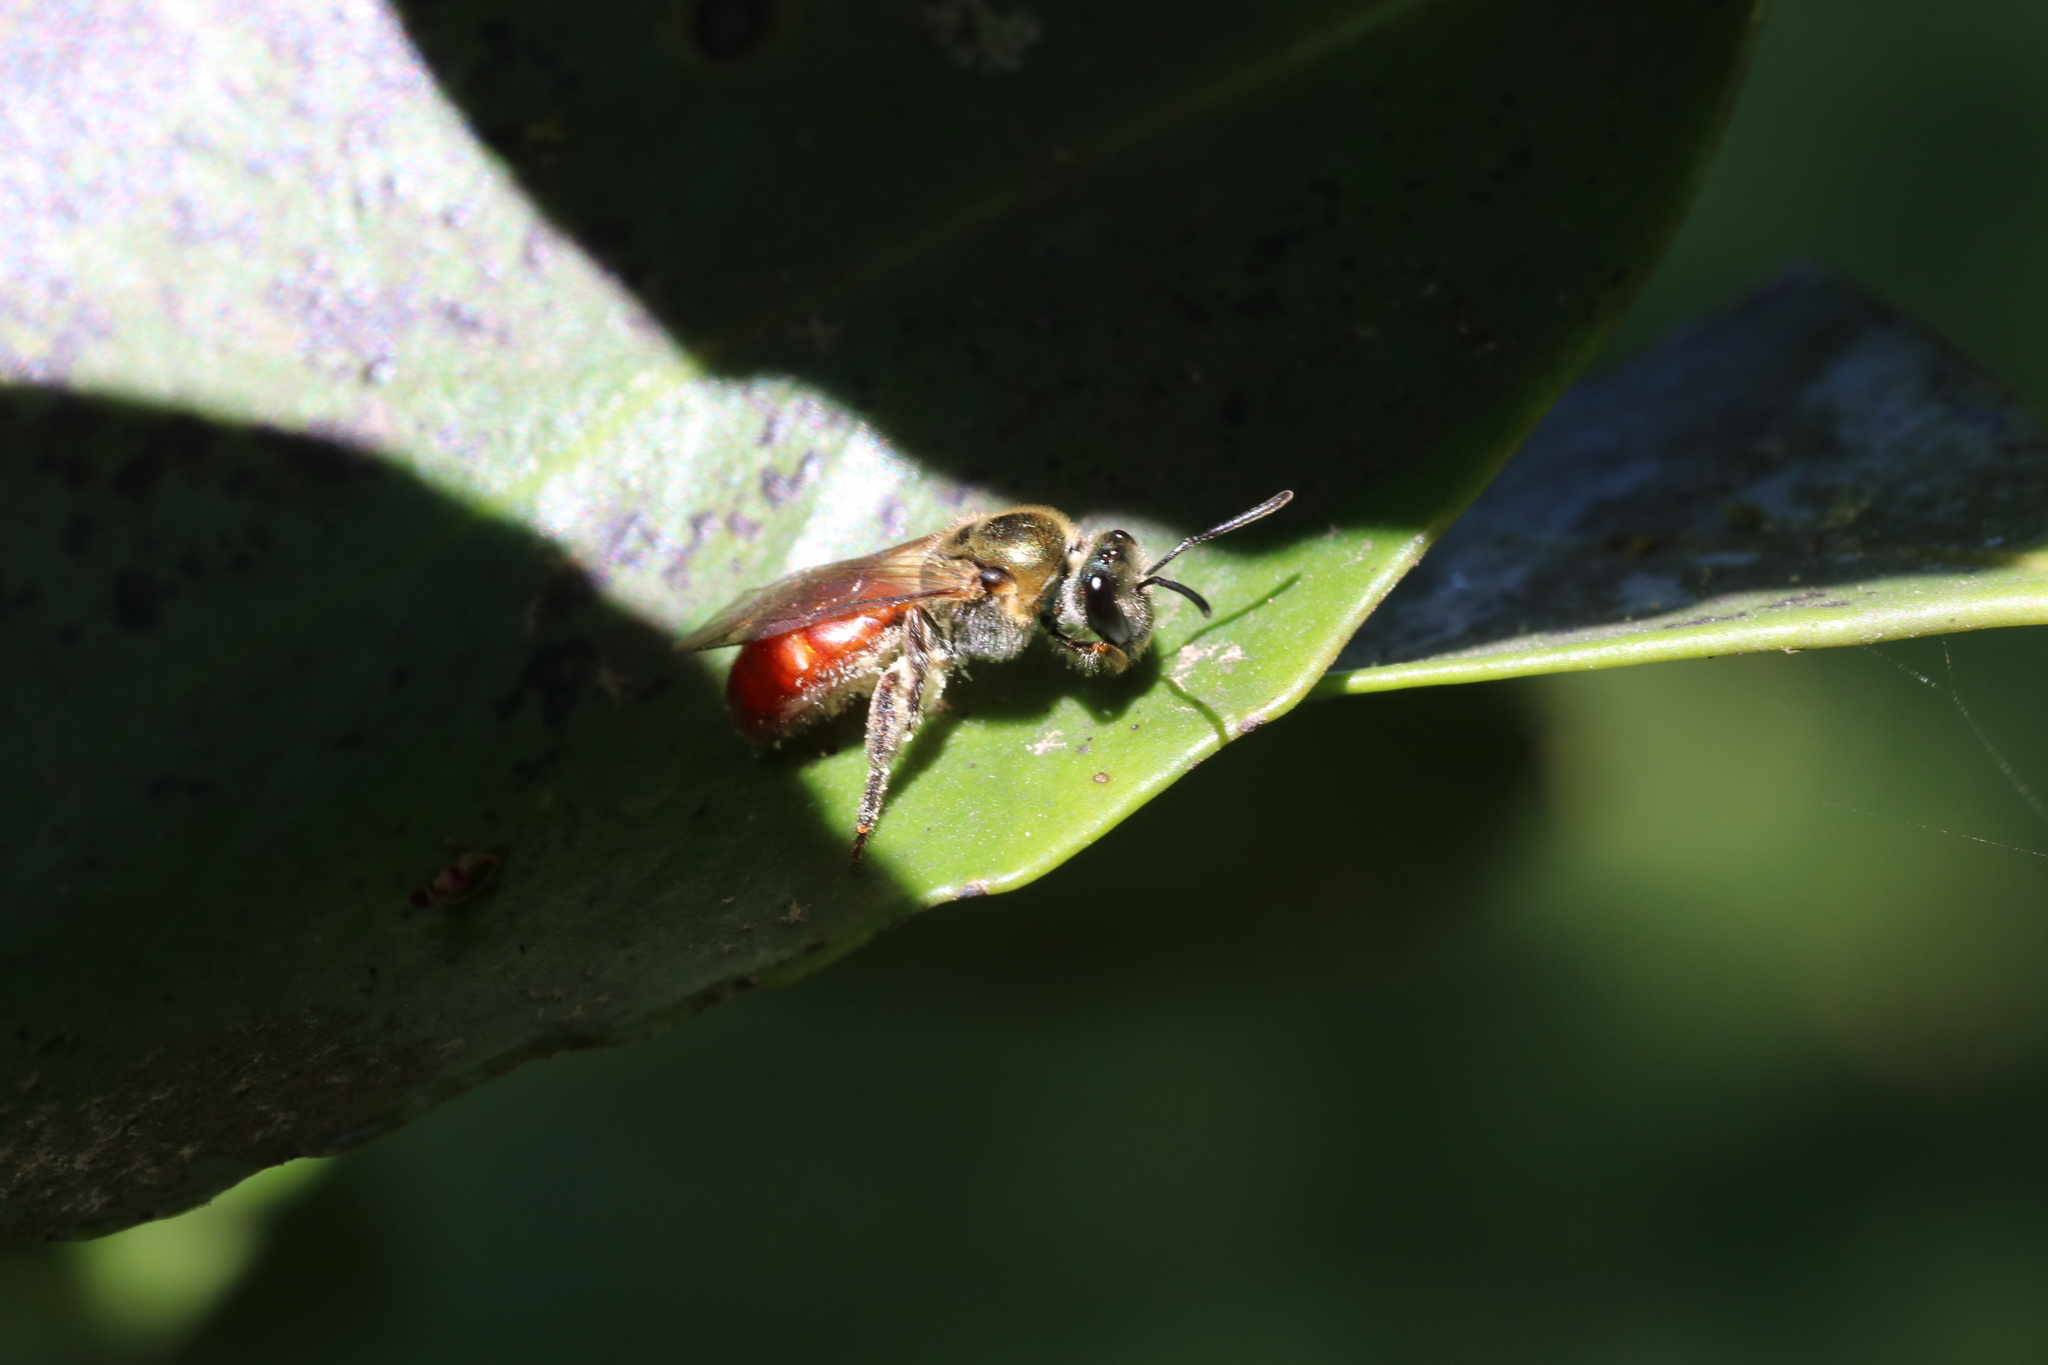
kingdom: Animalia
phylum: Arthropoda
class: Insecta
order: Hymenoptera
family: Halictidae
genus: Corynura
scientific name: Corynura corinogaster
